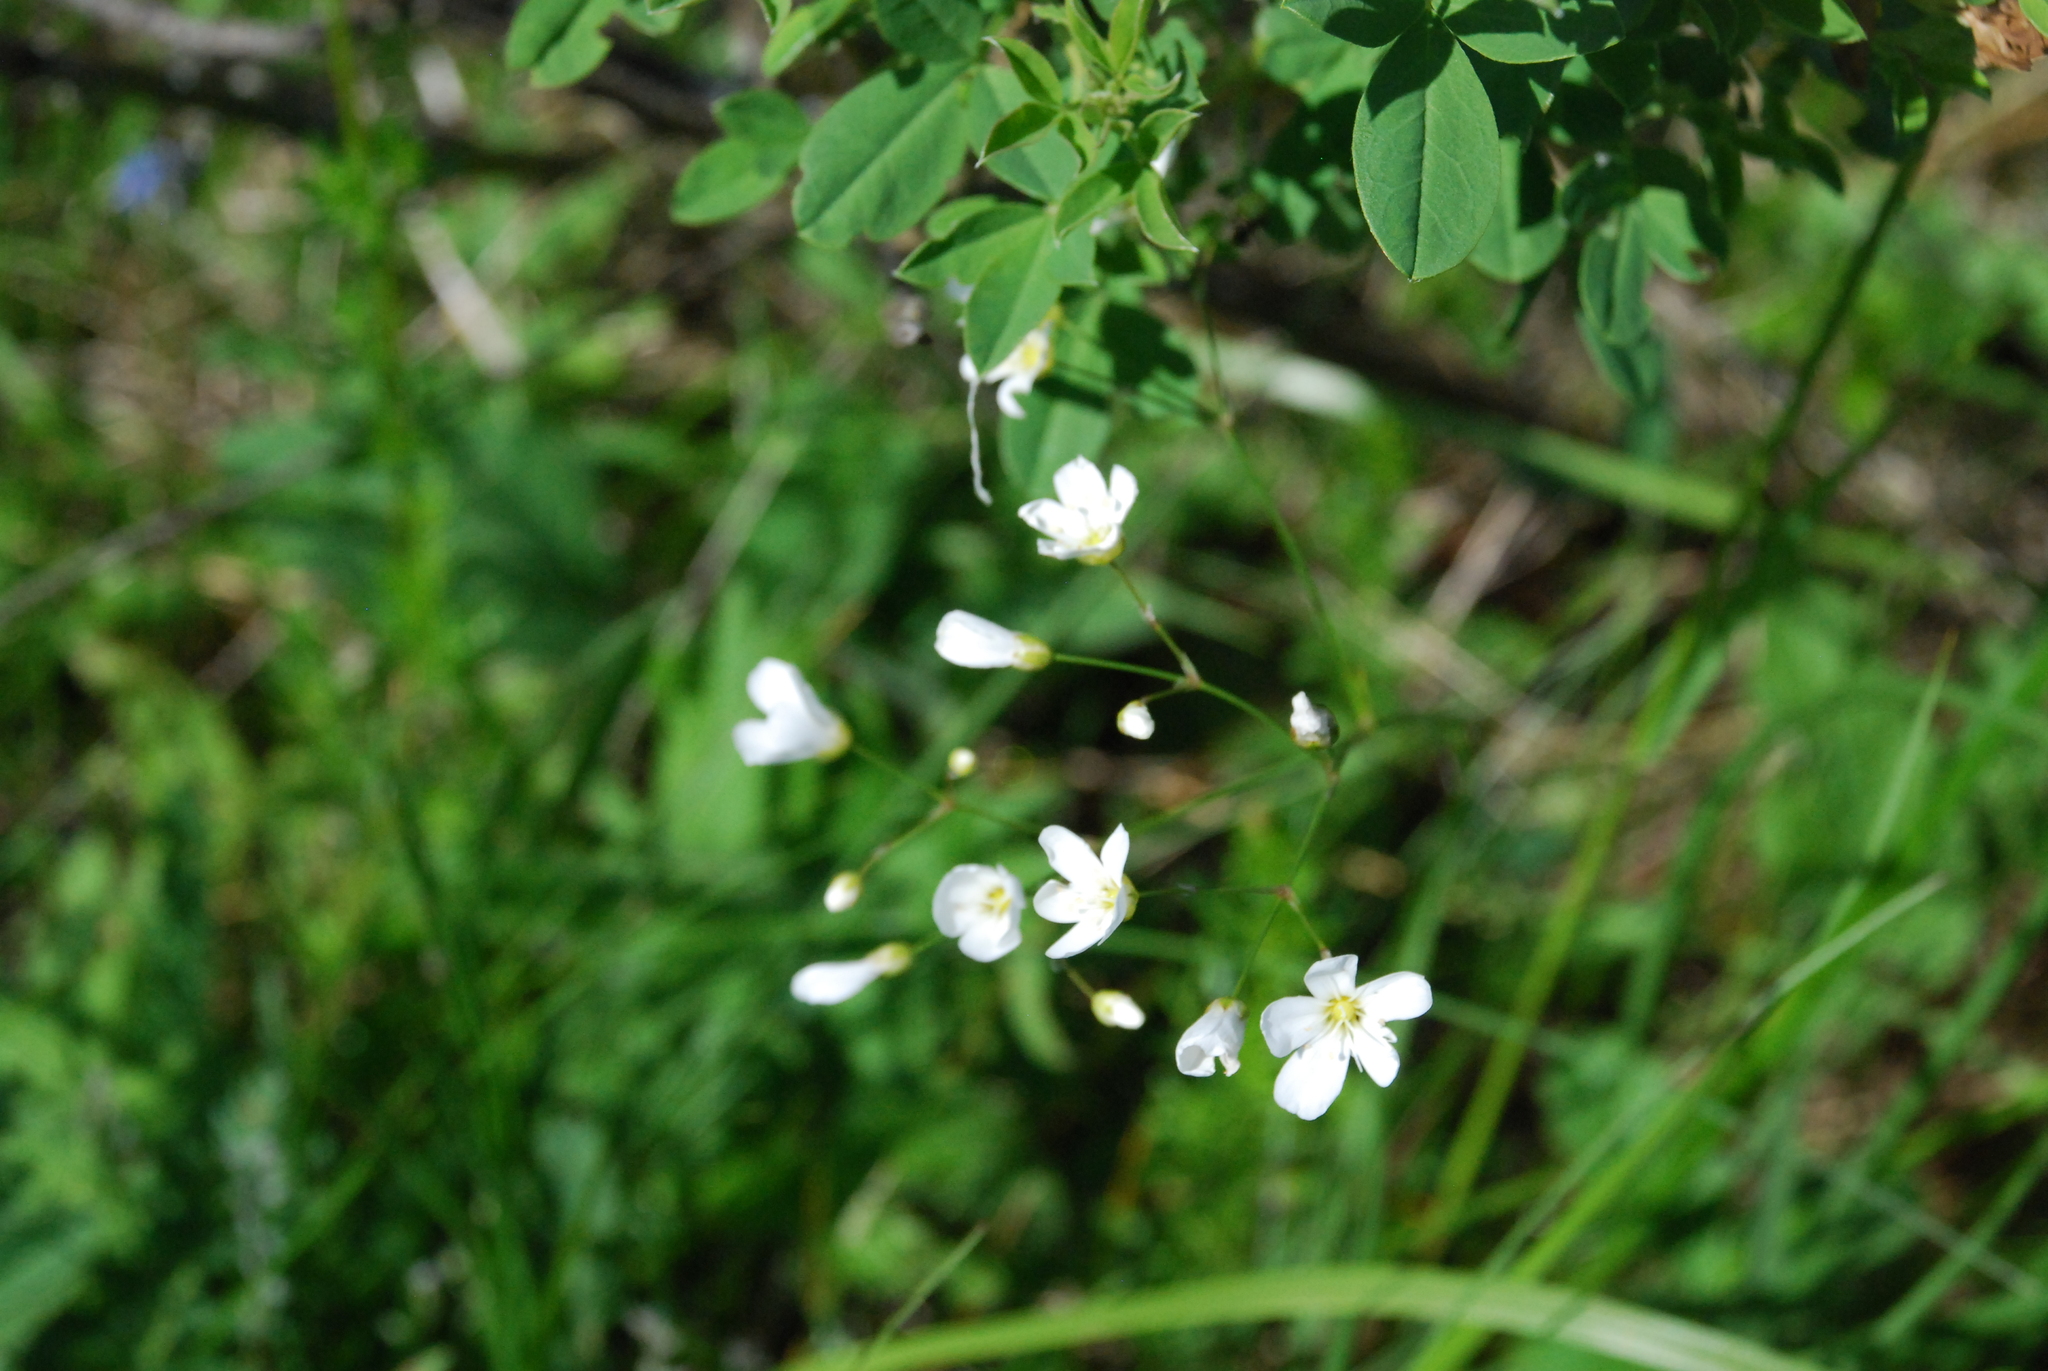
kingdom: Plantae
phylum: Tracheophyta
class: Magnoliopsida
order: Caryophyllales
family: Caryophyllaceae
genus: Eremogone
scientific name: Eremogone saxatilis
